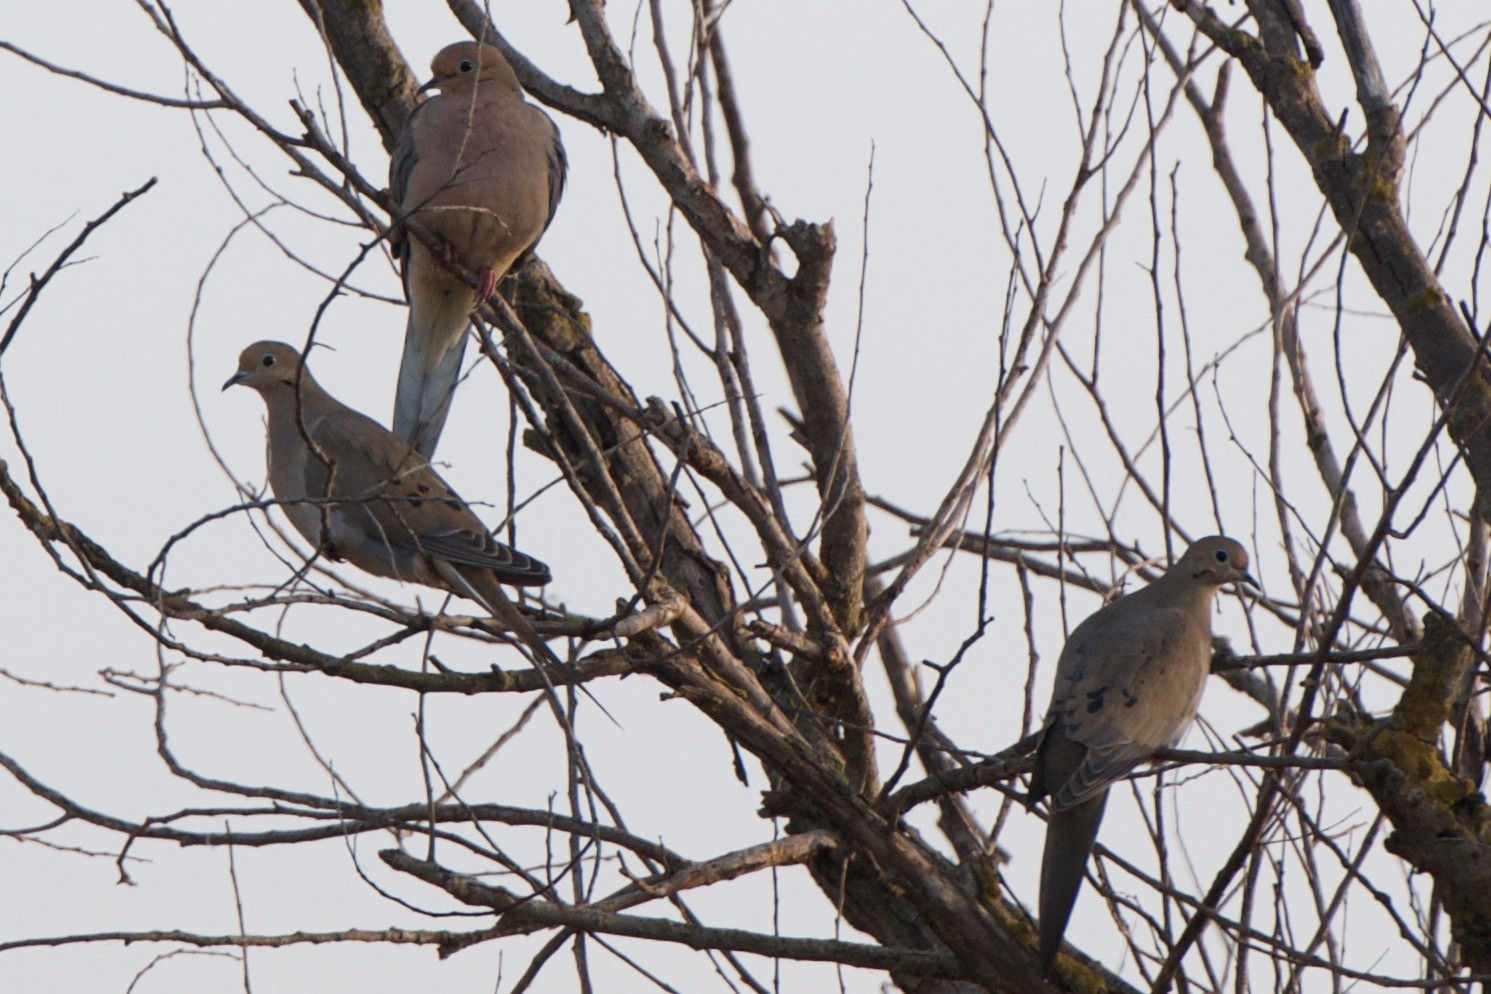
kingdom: Animalia
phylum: Chordata
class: Aves
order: Columbiformes
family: Columbidae
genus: Zenaida
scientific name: Zenaida macroura
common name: Mourning dove
